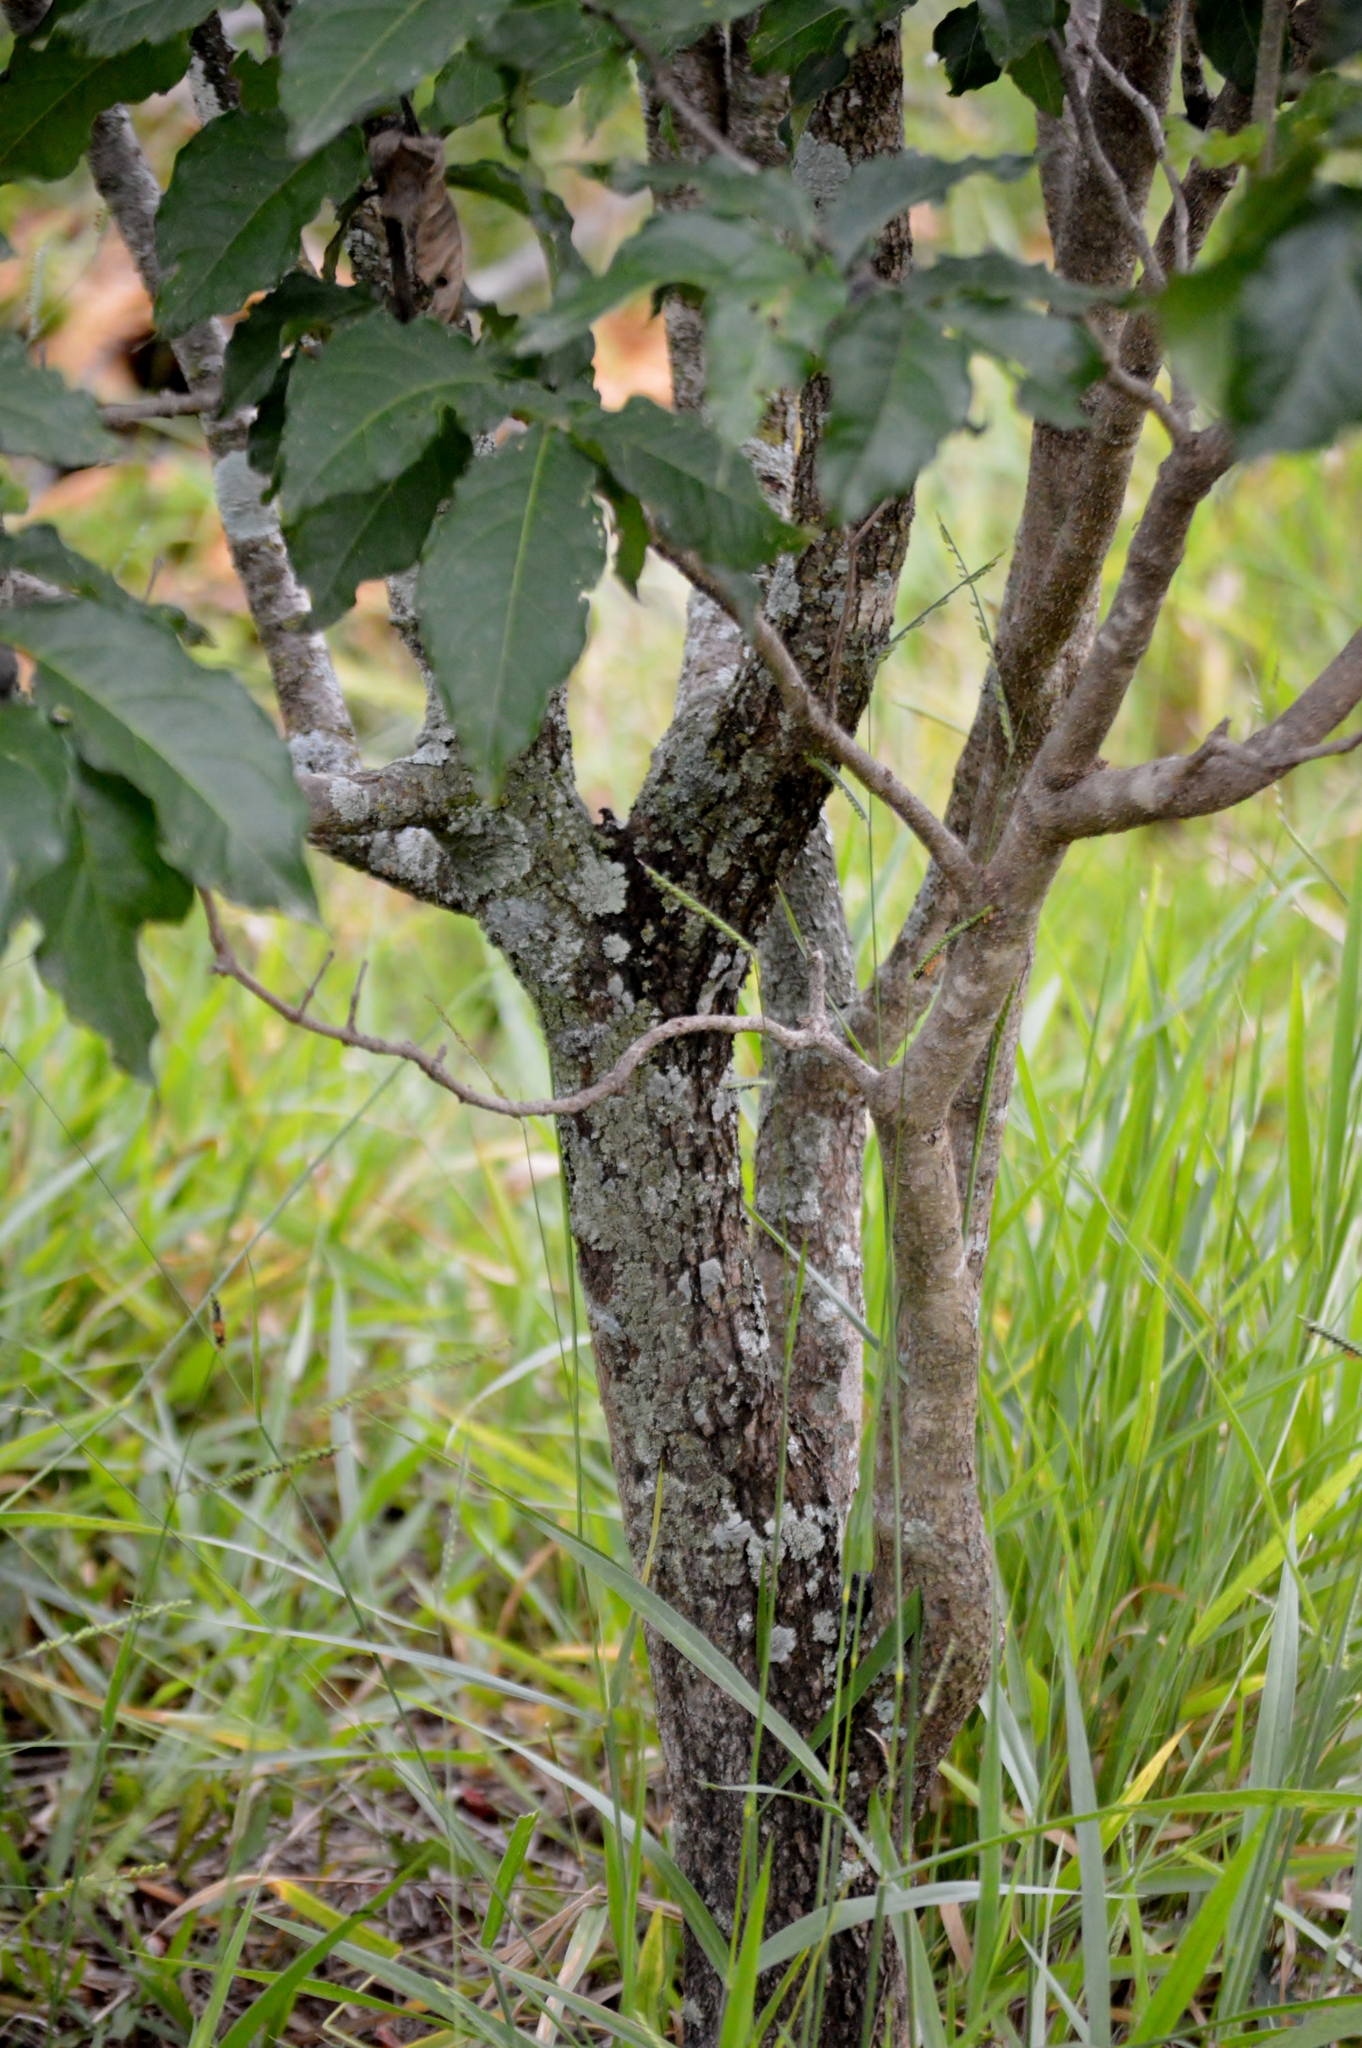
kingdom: Plantae
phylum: Tracheophyta
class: Magnoliopsida
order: Malpighiales
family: Malpighiaceae
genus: Bunchosia
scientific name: Bunchosia glandulifera
